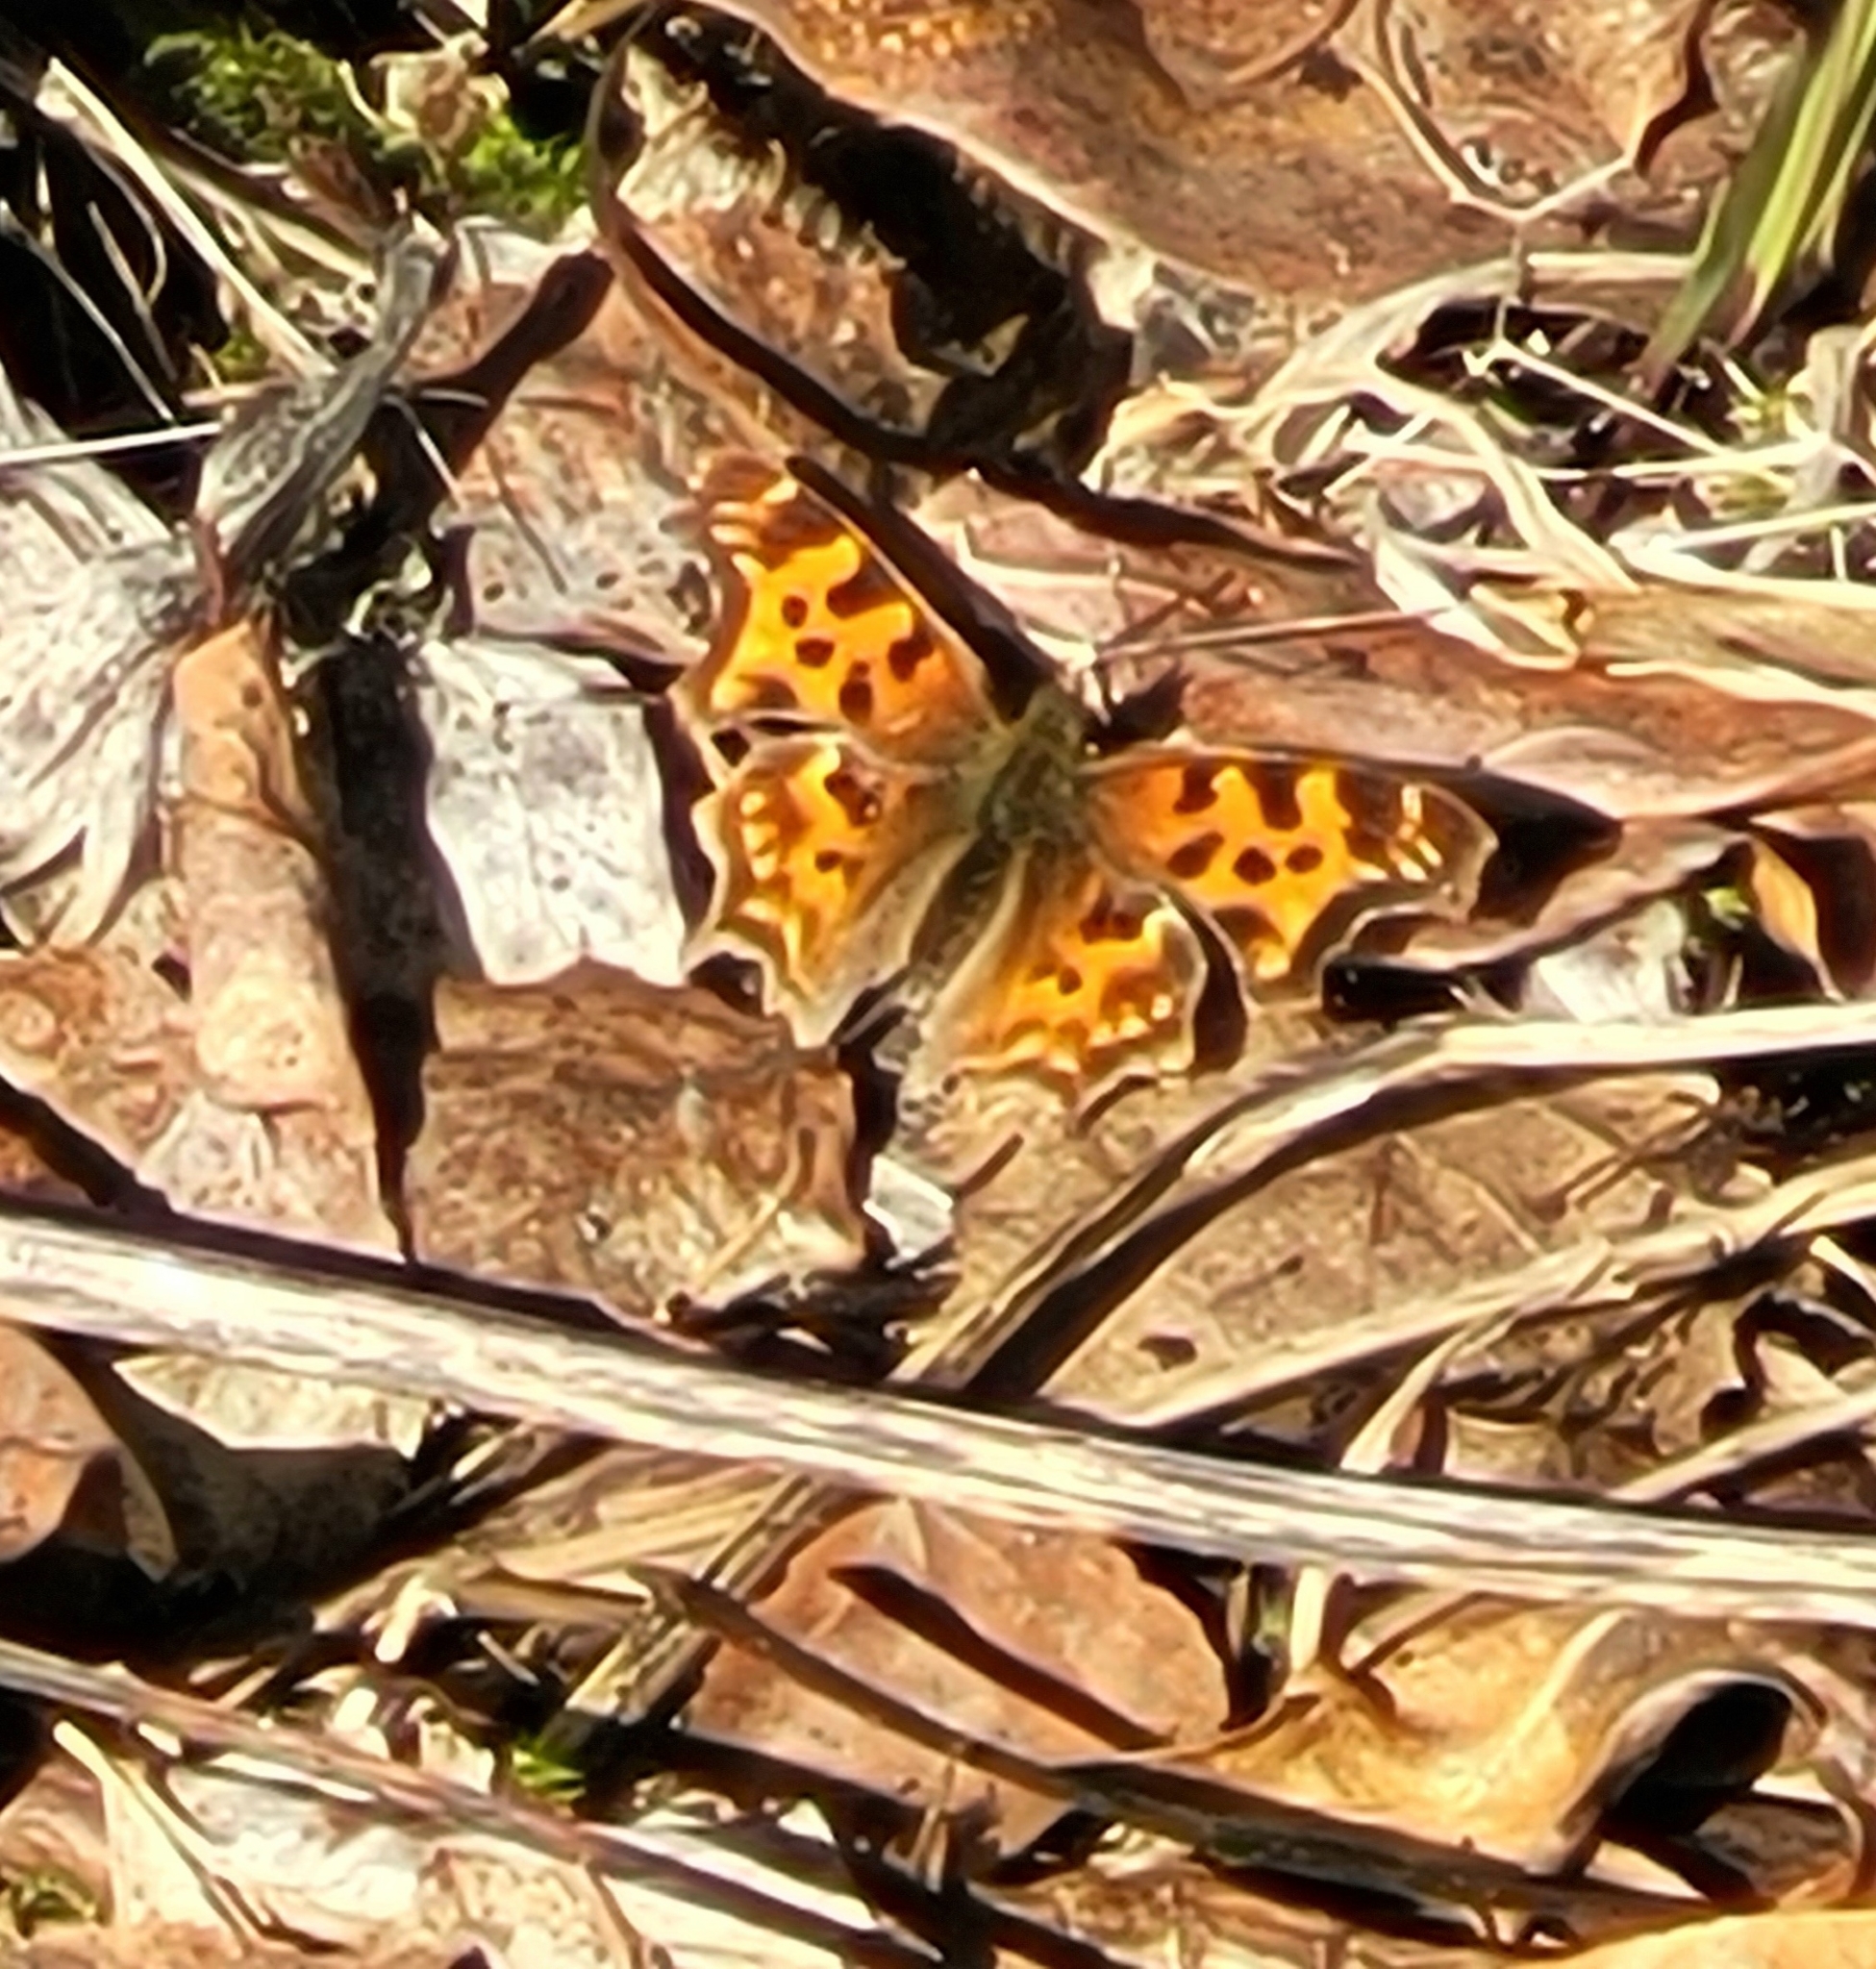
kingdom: Animalia
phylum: Arthropoda
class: Insecta
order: Lepidoptera
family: Nymphalidae
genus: Polygonia
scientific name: Polygonia satyrus
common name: Satyr angle wing
